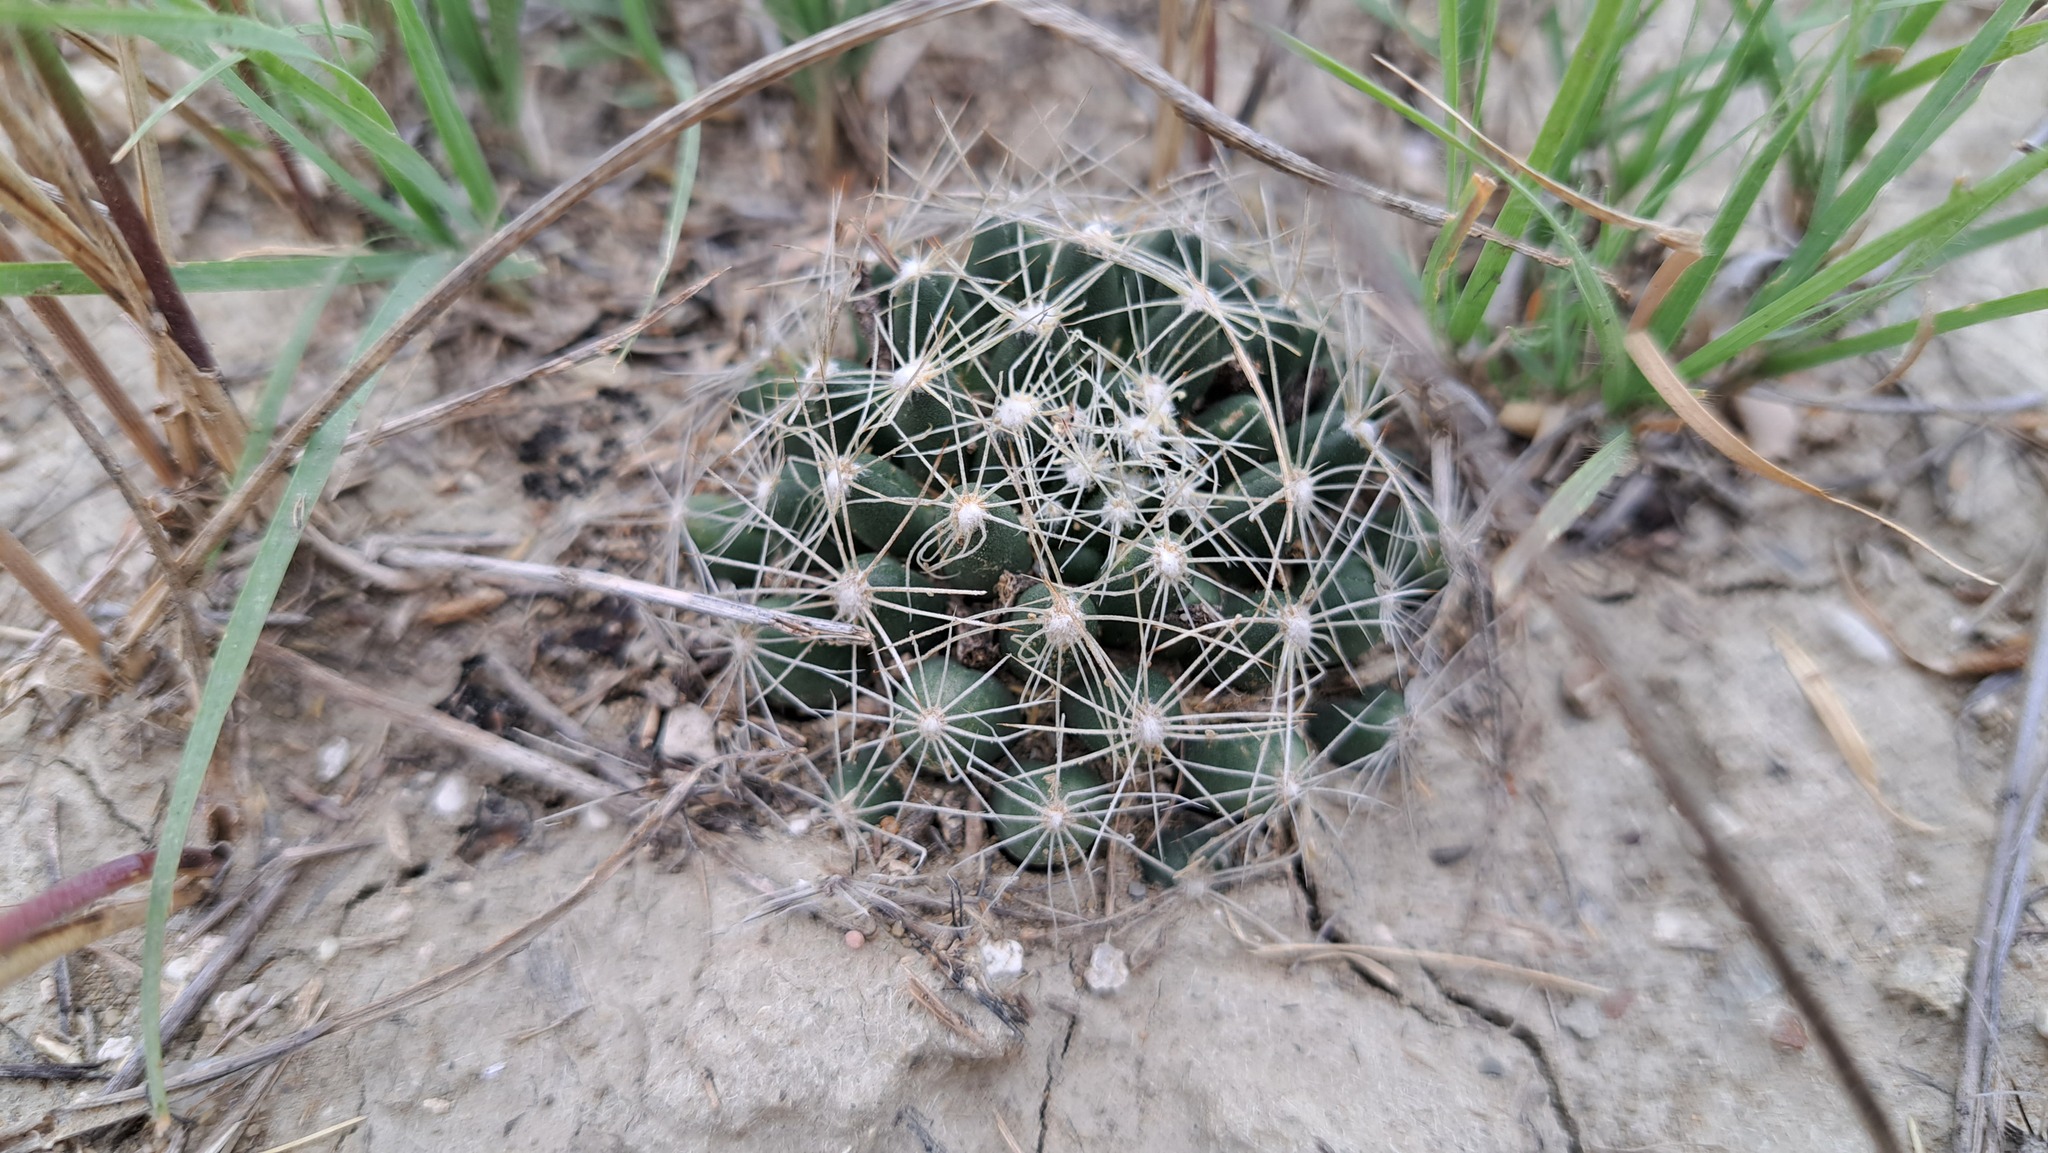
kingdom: Plantae
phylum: Tracheophyta
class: Magnoliopsida
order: Caryophyllales
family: Cactaceae
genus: Pelecyphora
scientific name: Pelecyphora missouriensis
